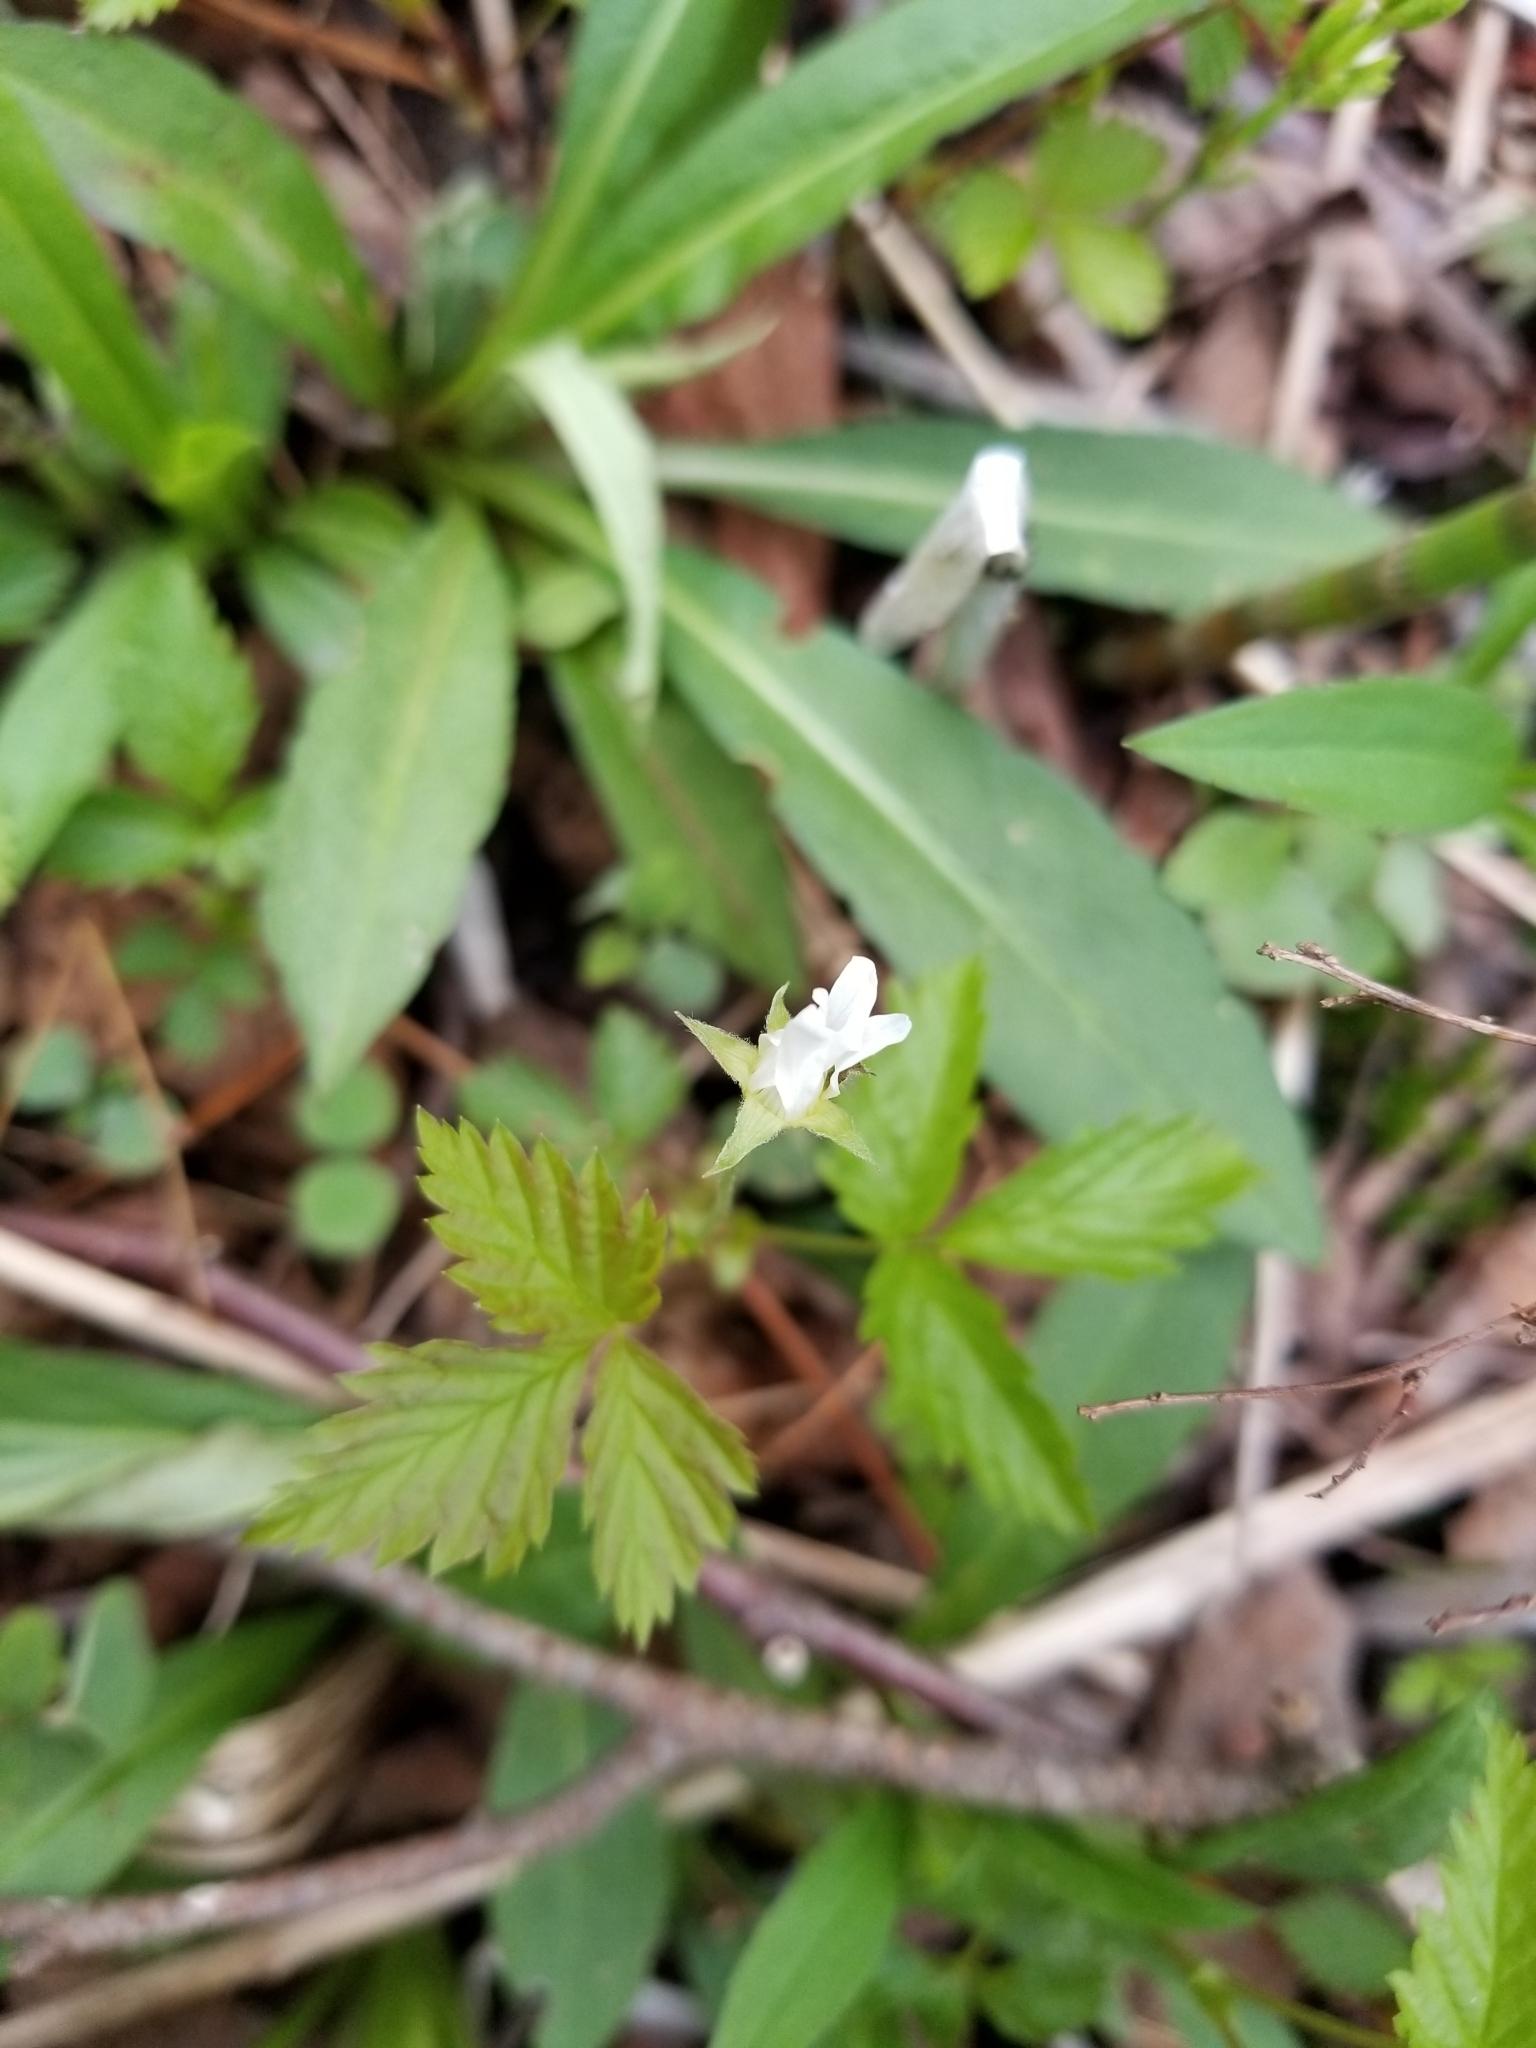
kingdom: Plantae
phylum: Tracheophyta
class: Magnoliopsida
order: Rosales
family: Rosaceae
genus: Rubus
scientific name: Rubus pubescens
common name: Dwarf raspberry
